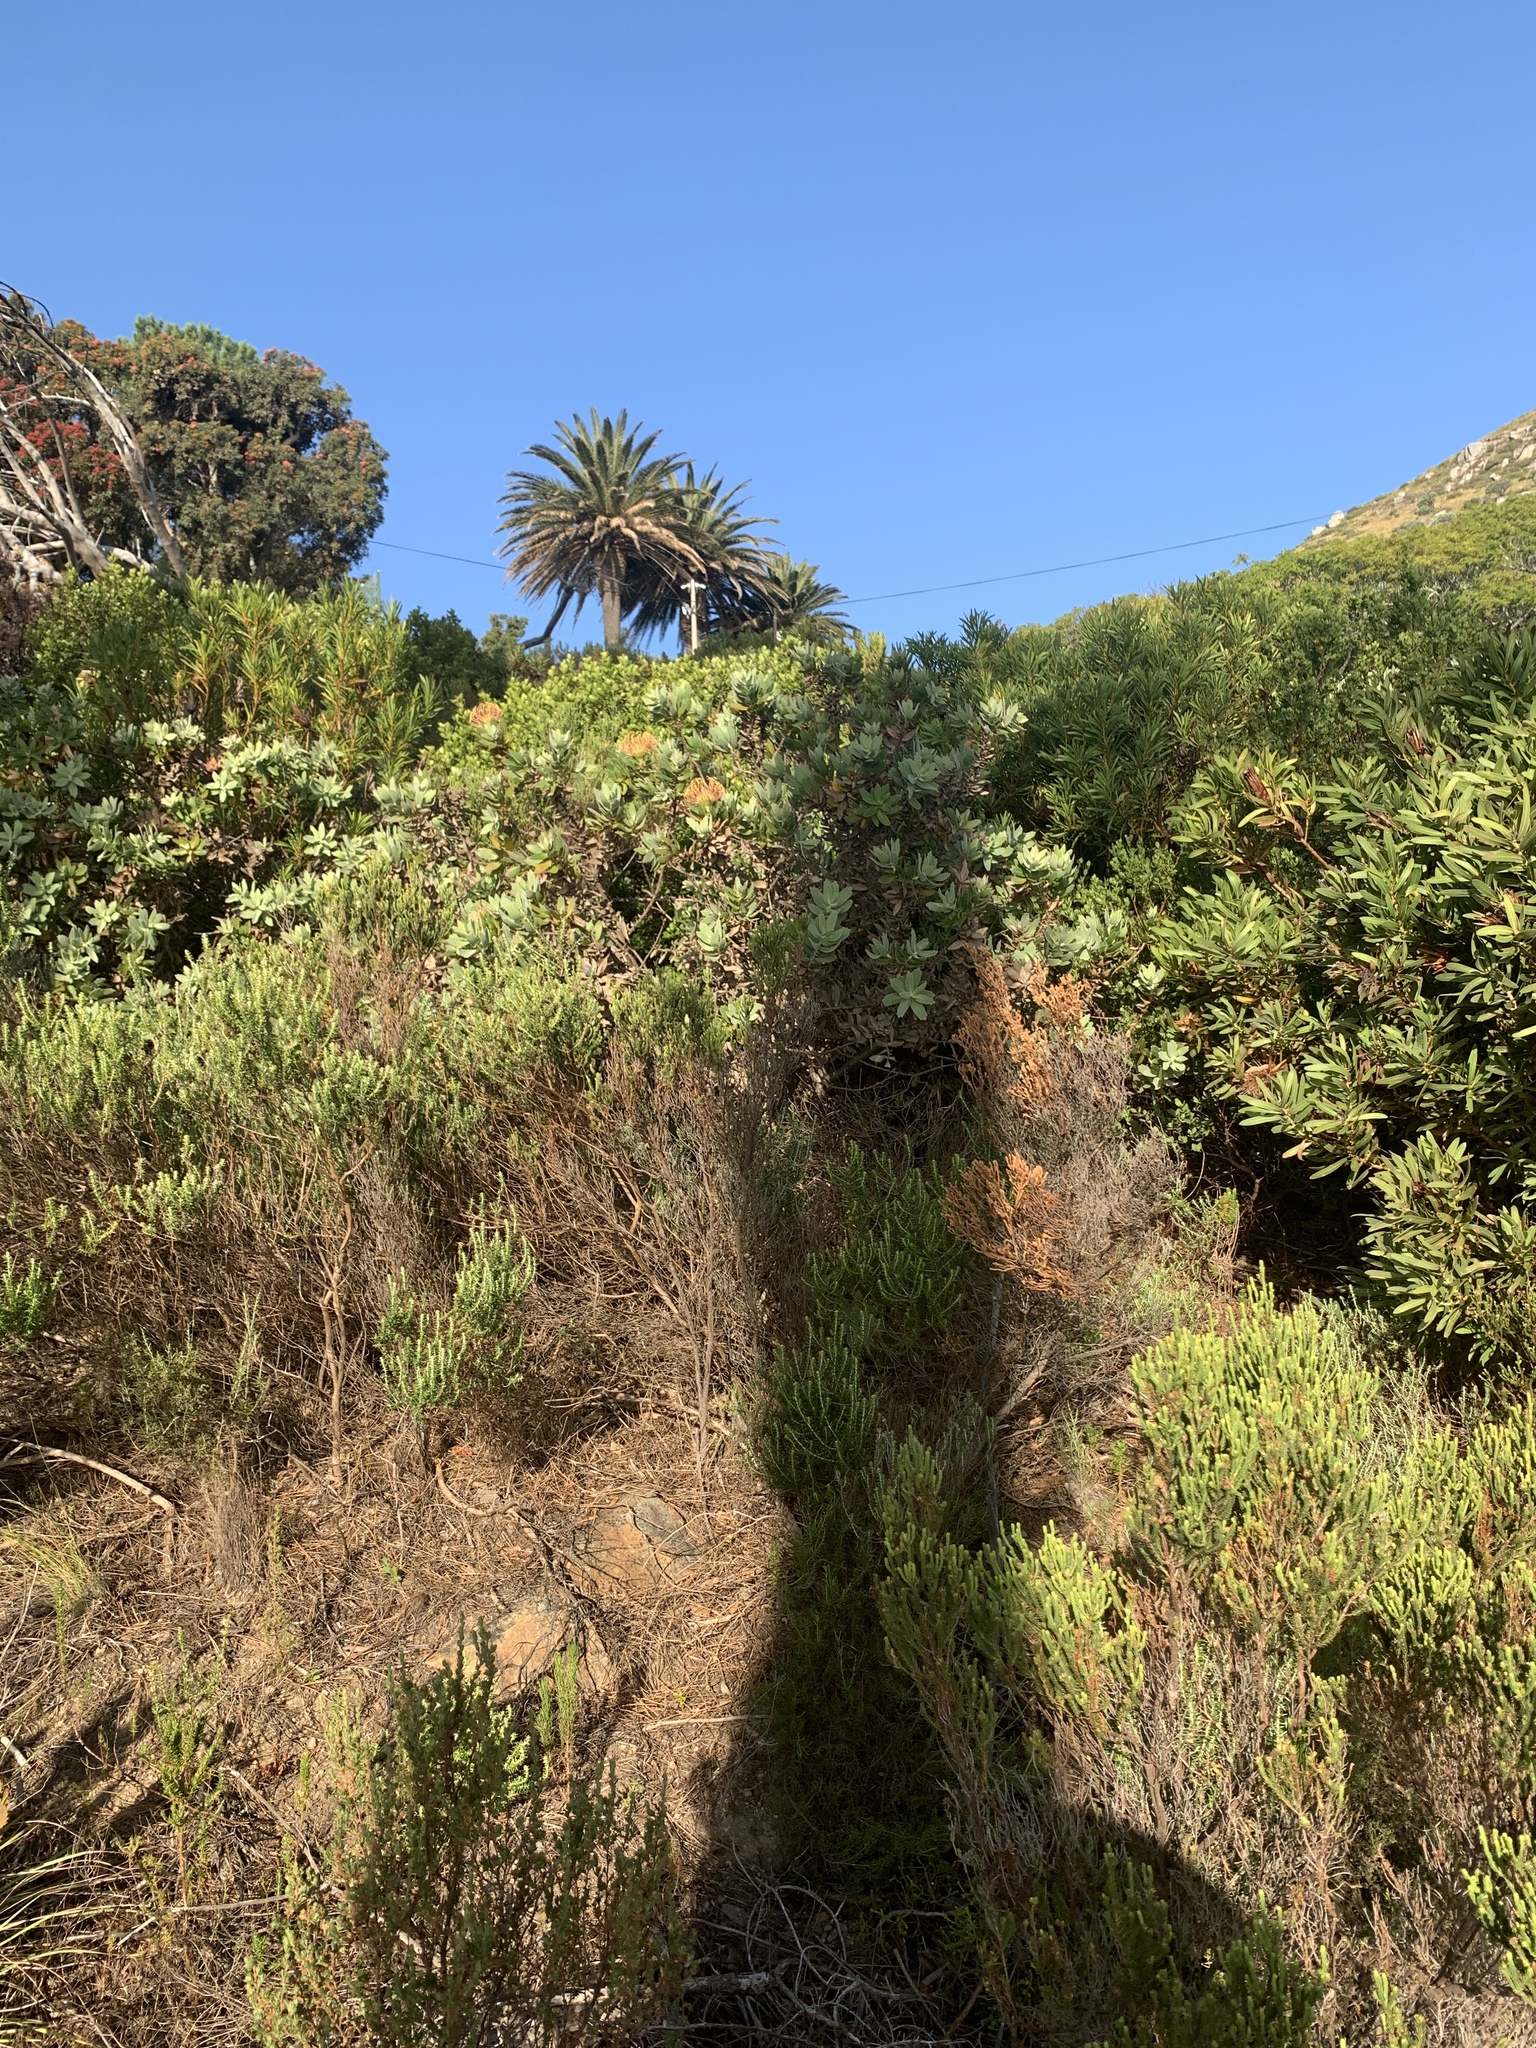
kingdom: Plantae
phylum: Tracheophyta
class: Magnoliopsida
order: Proteales
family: Proteaceae
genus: Leucospermum
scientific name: Leucospermum
